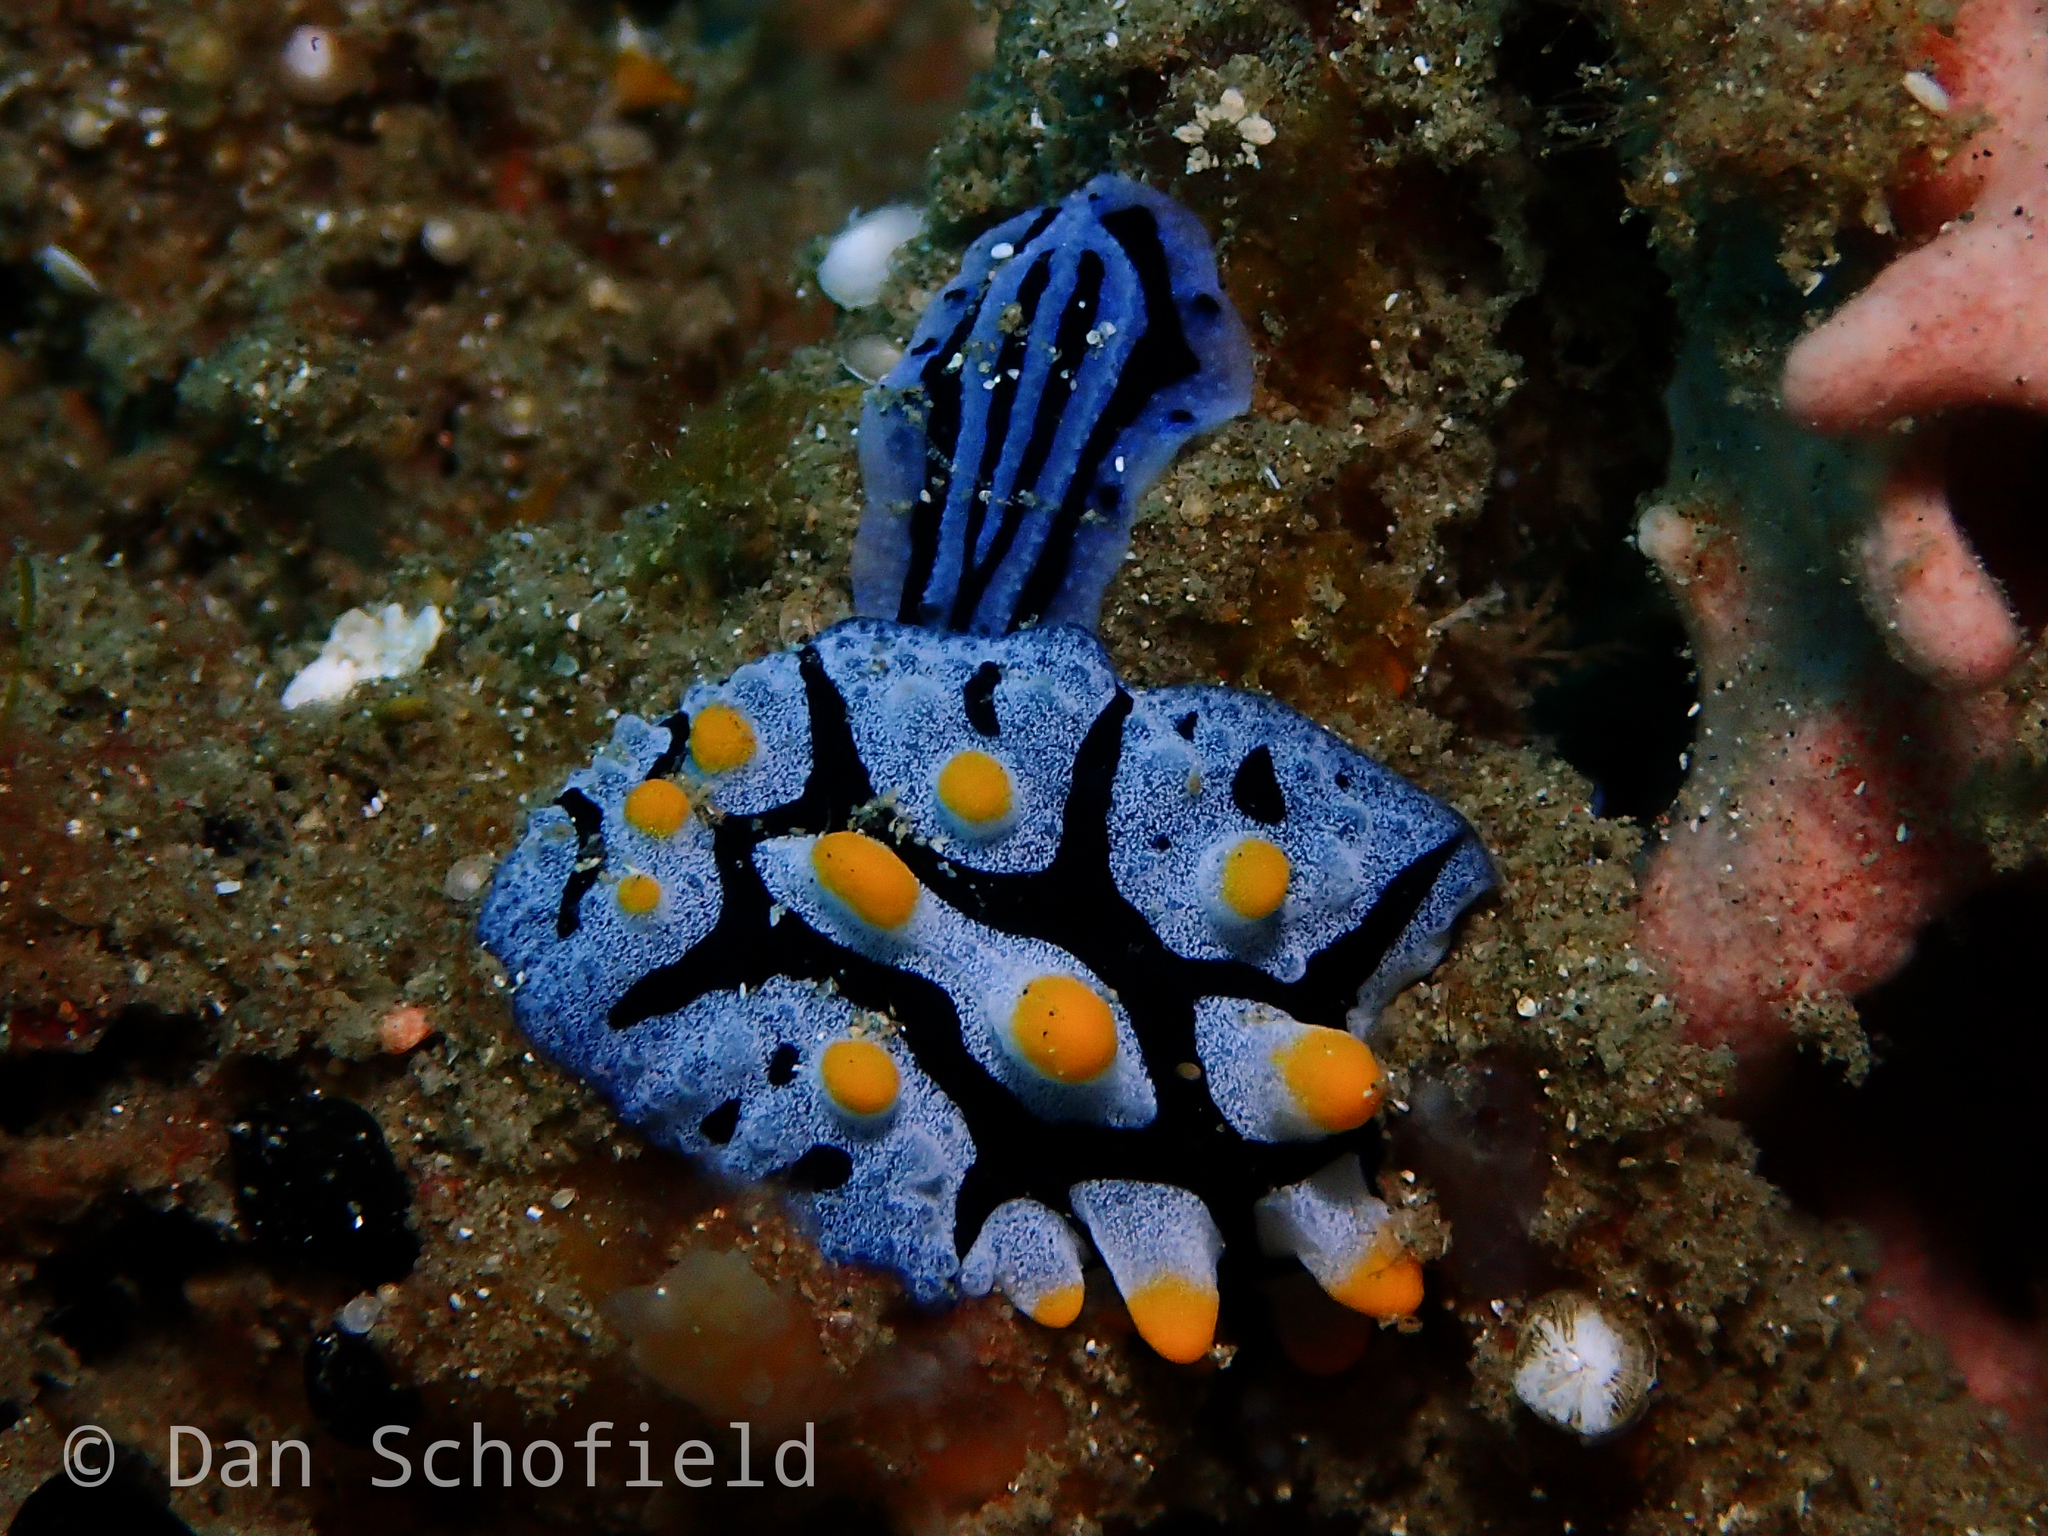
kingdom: Animalia
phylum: Mollusca
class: Gastropoda
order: Nudibranchia
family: Phyllidiidae
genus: Phyllidiopsis
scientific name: Phyllidiopsis annae
